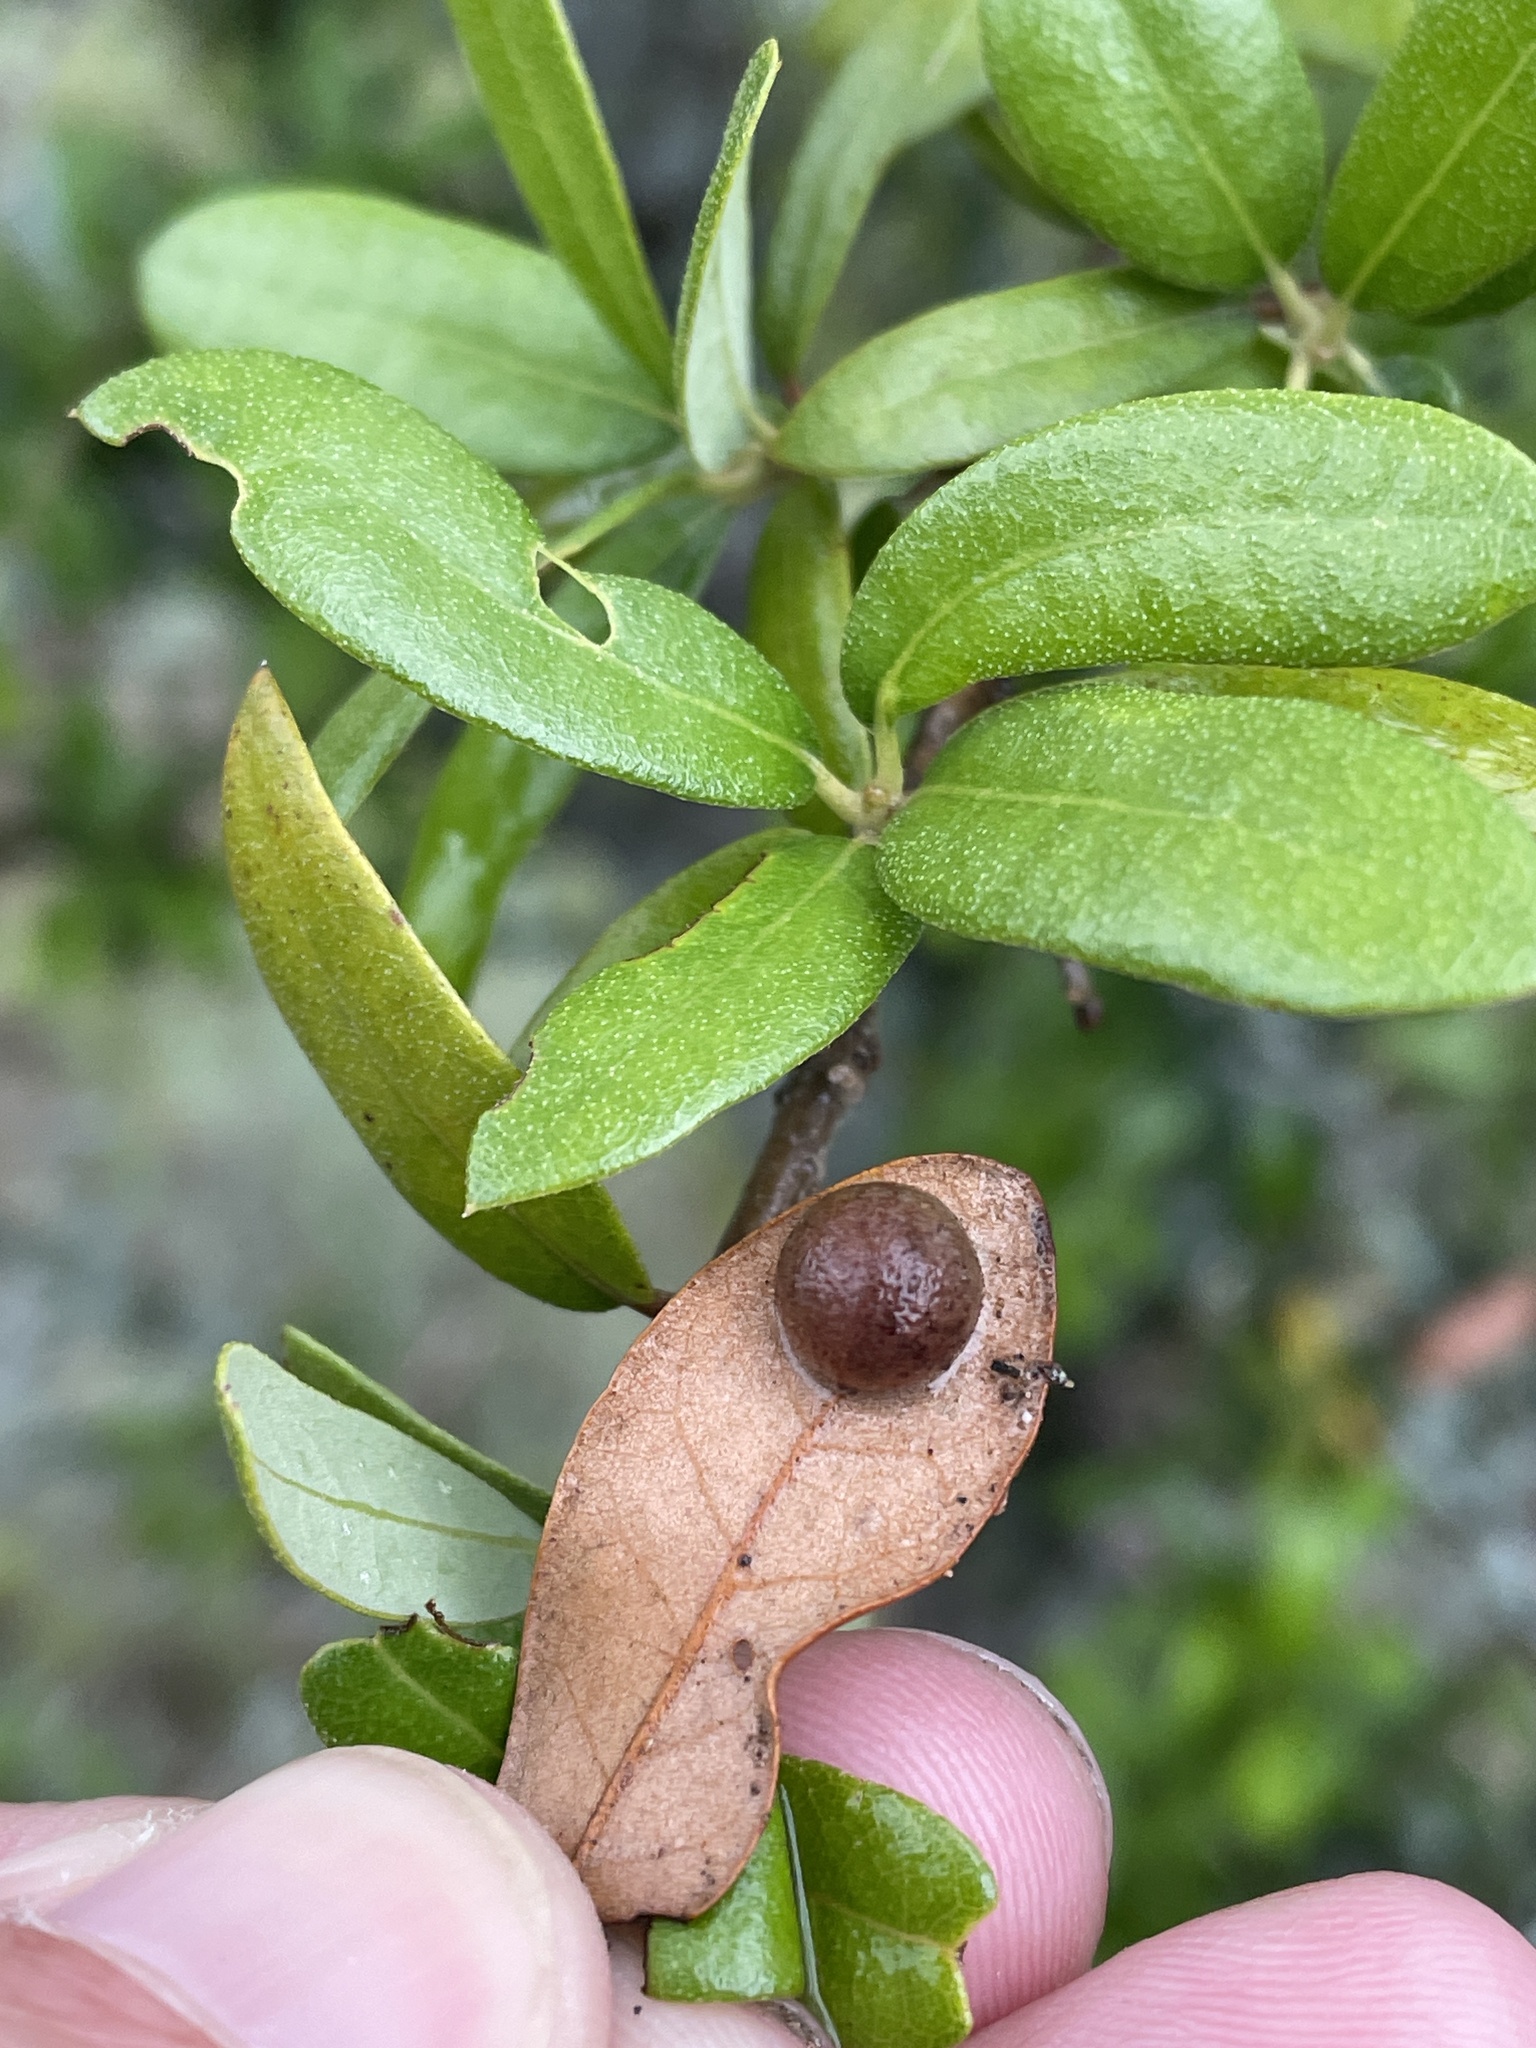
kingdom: Animalia
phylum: Arthropoda
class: Insecta
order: Hymenoptera
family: Cynipidae
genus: Belonocnema
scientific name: Belonocnema kinseyi
